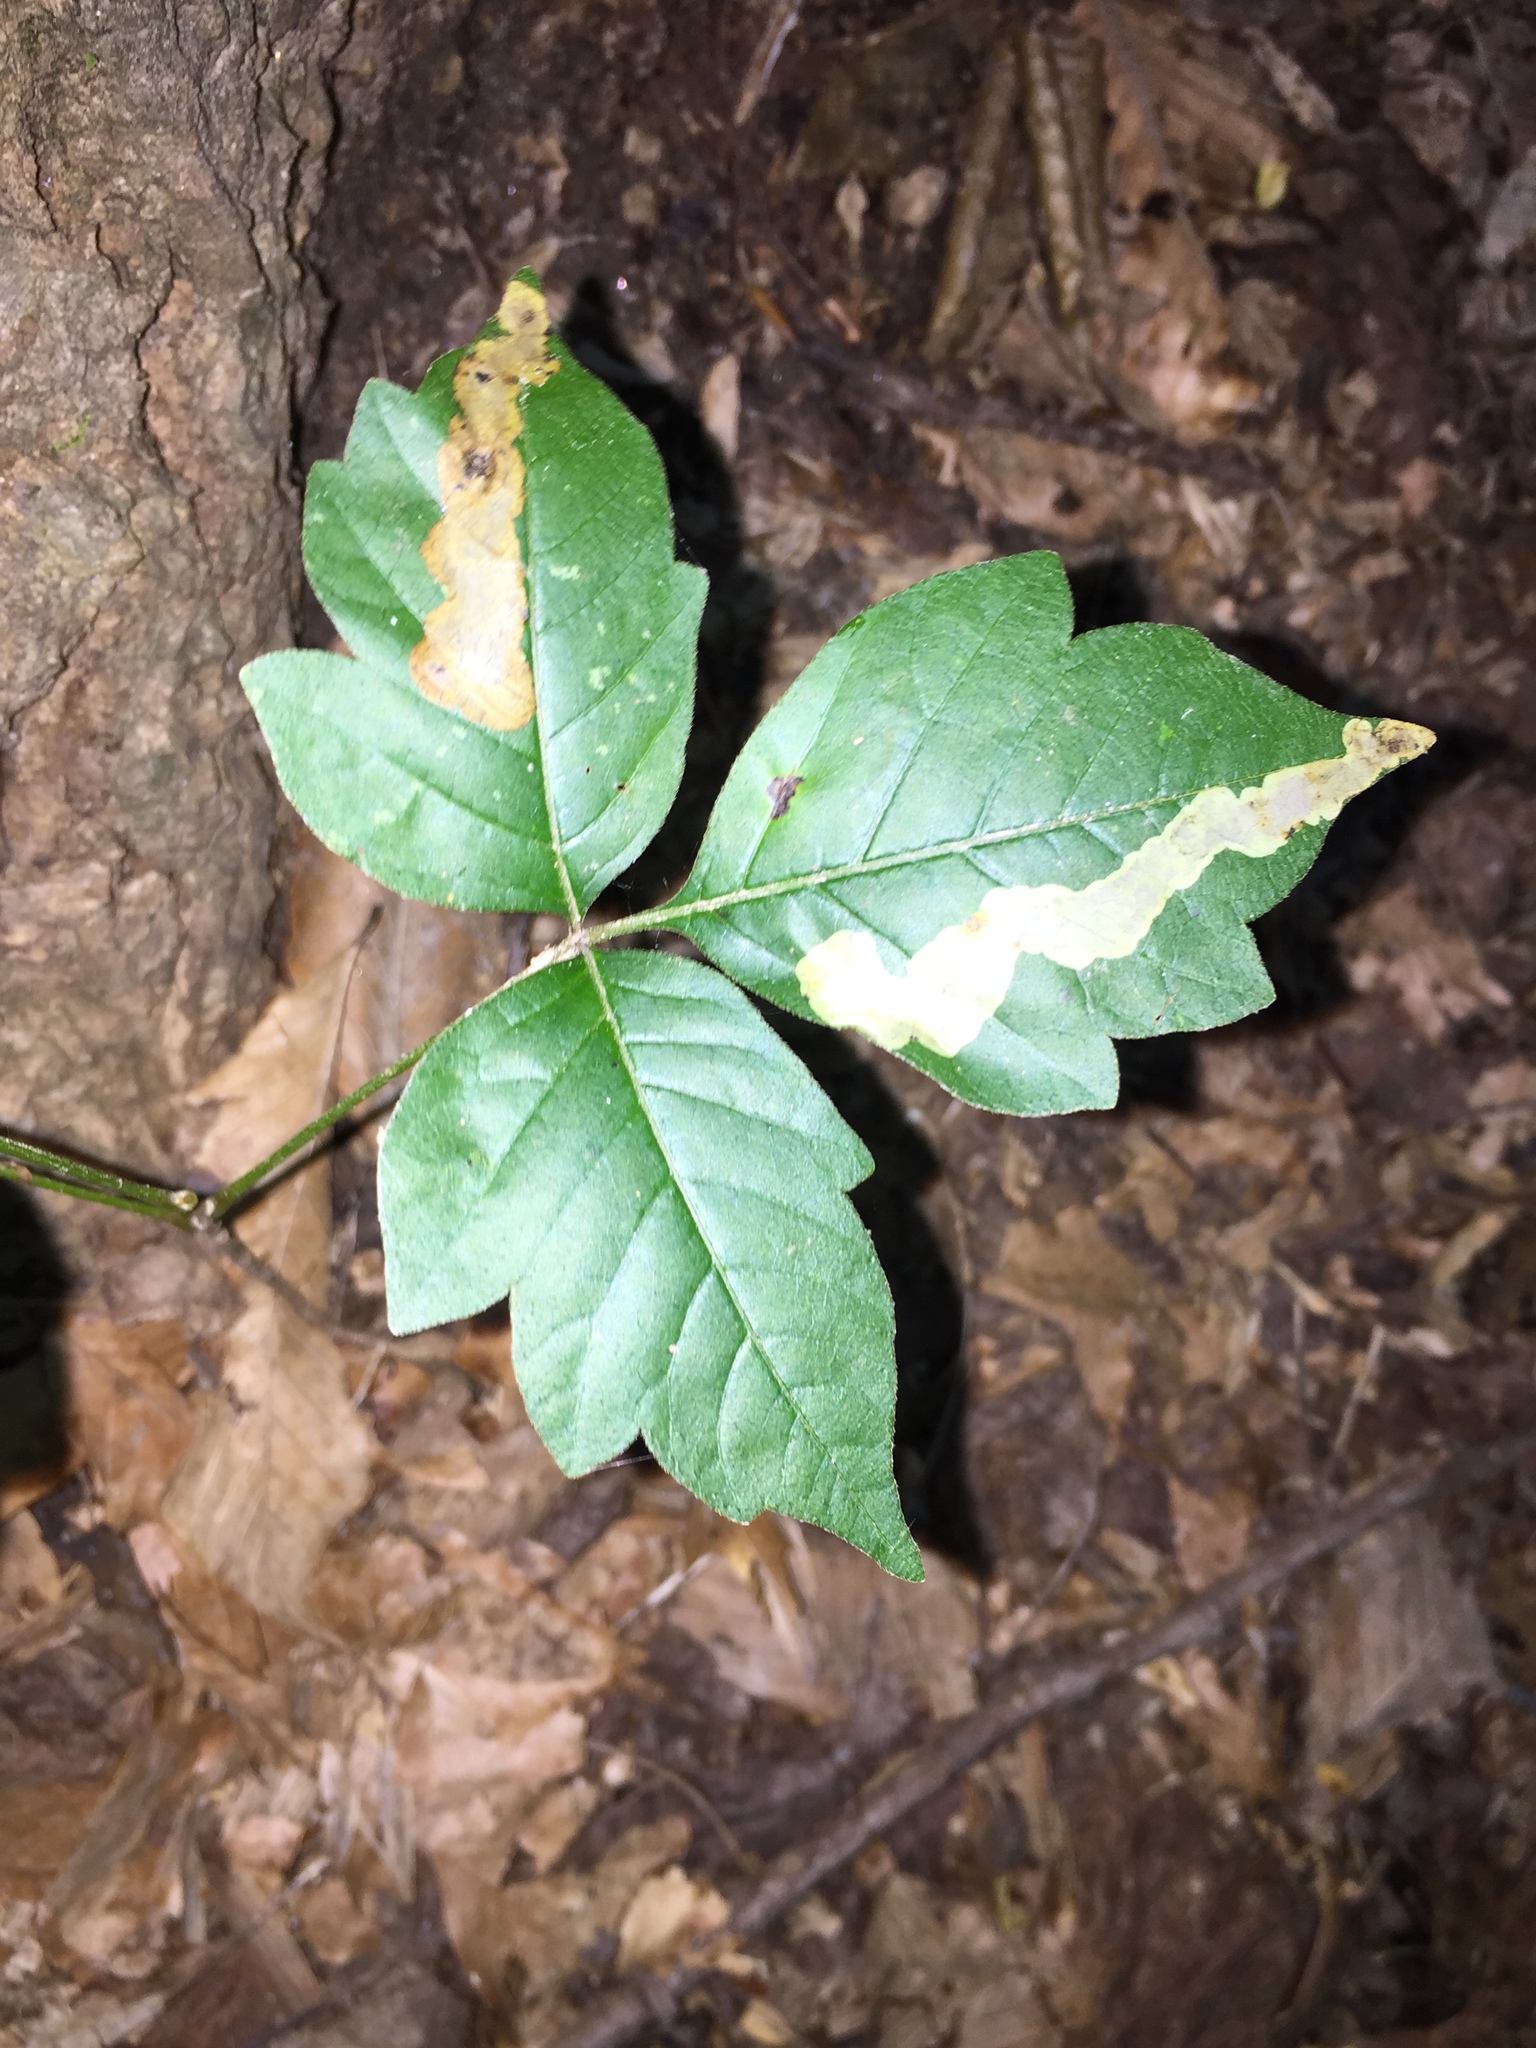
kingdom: Animalia
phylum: Arthropoda
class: Insecta
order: Lepidoptera
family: Gracillariidae
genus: Cameraria
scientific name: Cameraria guttifinitella
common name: Poison ivy leaf-miner moth
